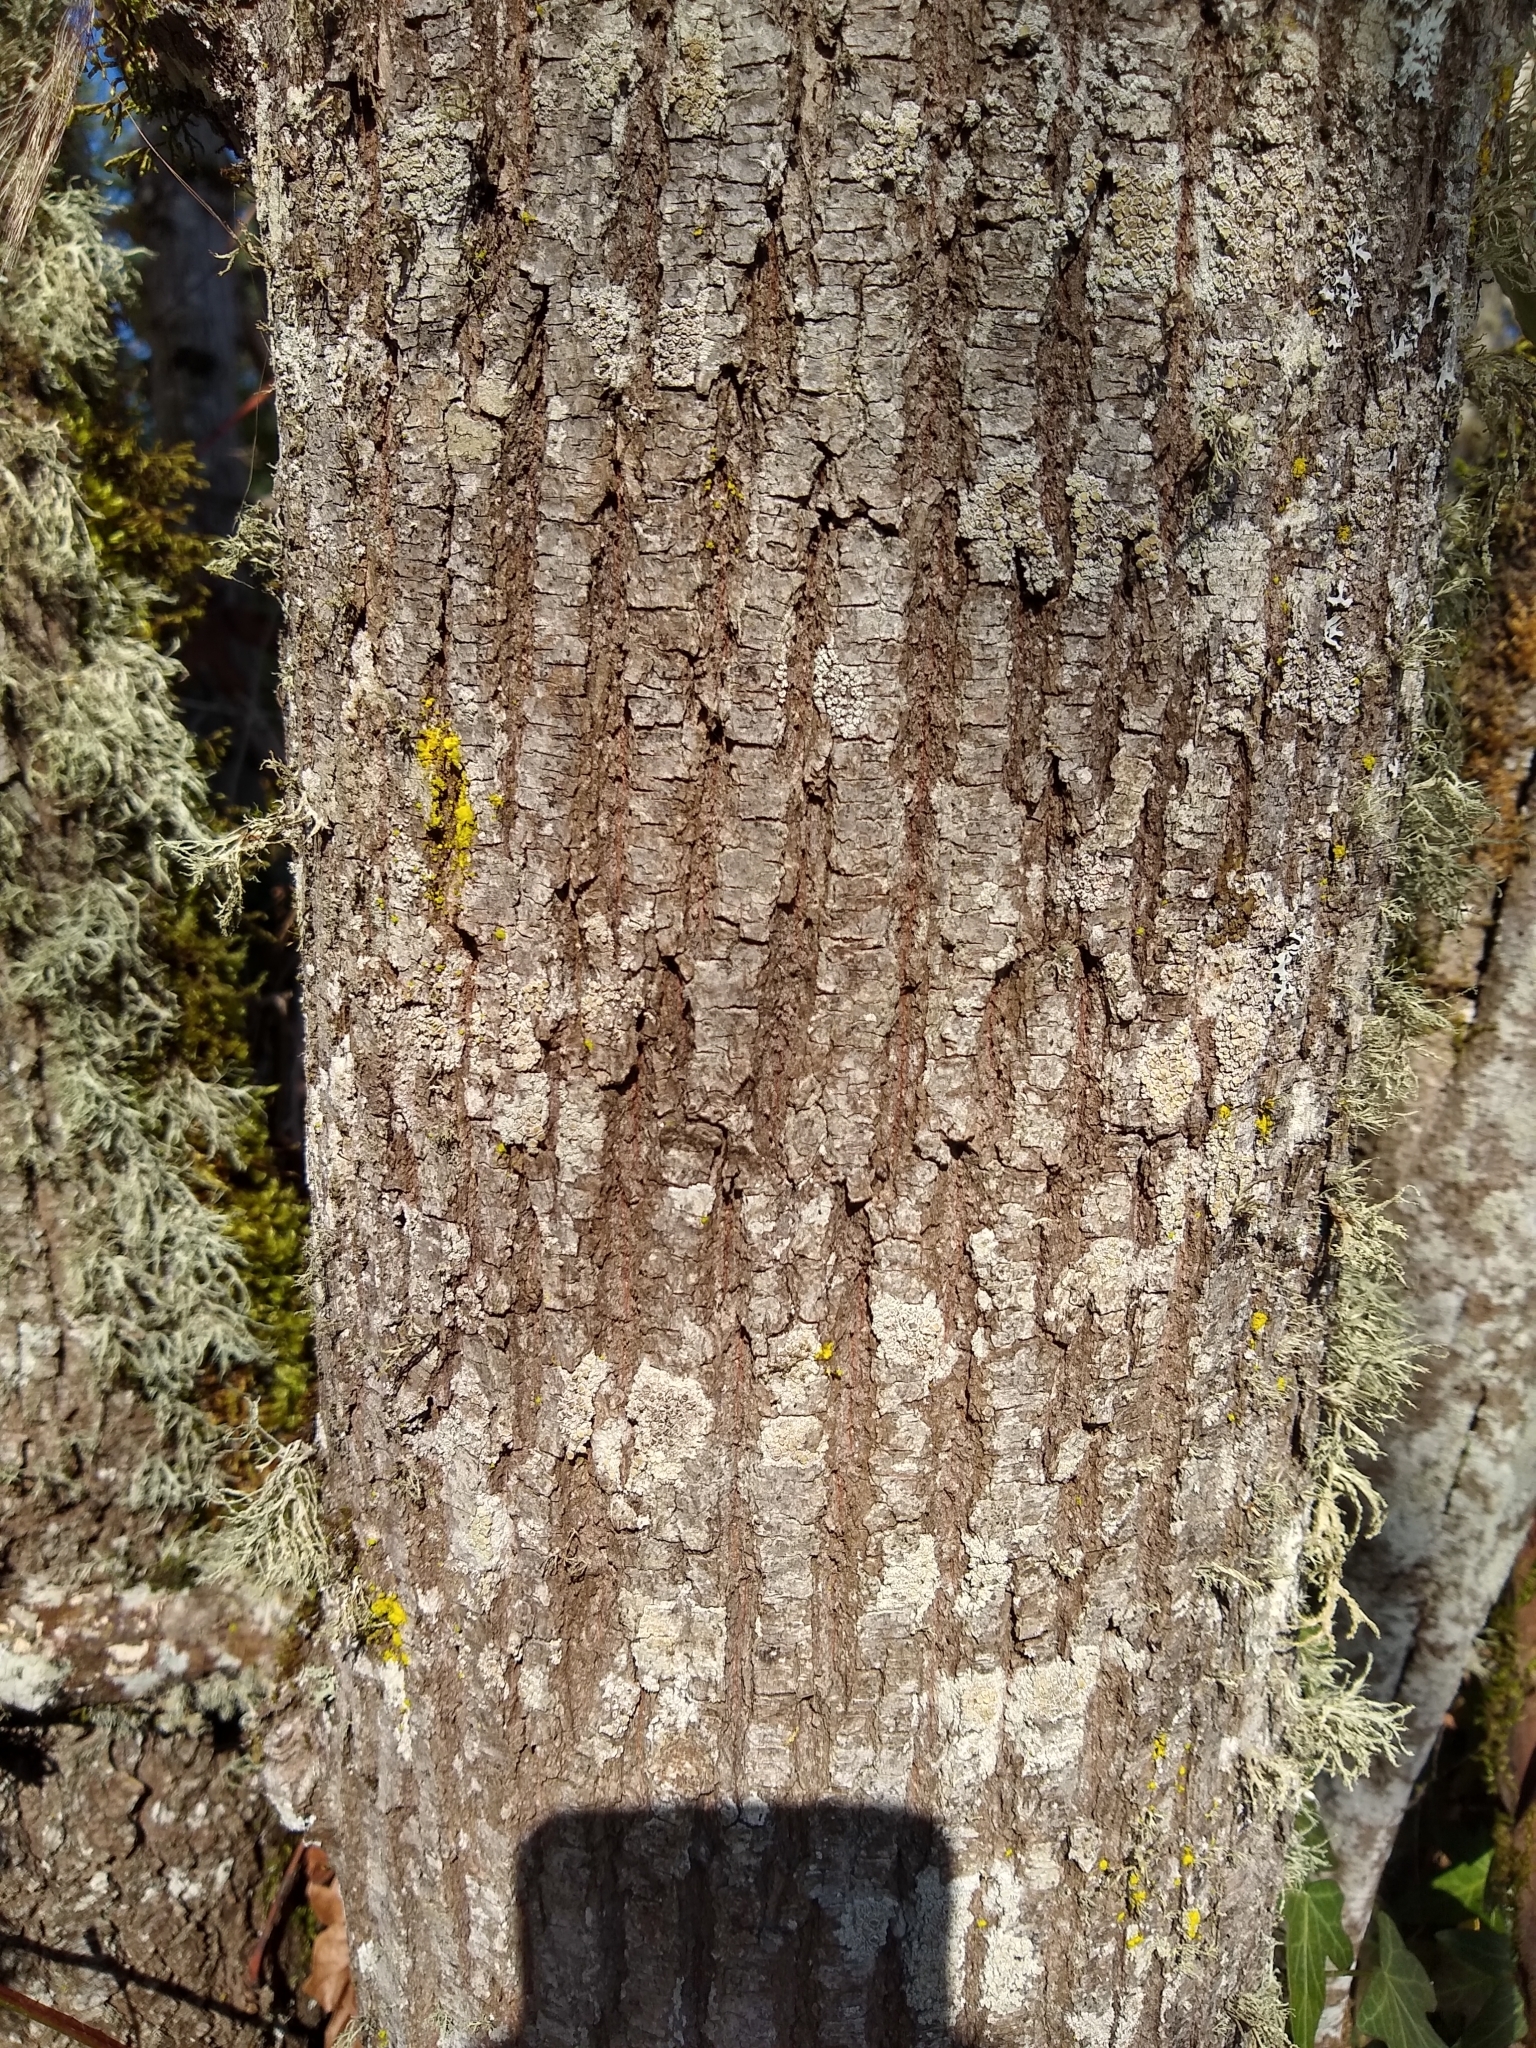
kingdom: Plantae
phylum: Tracheophyta
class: Magnoliopsida
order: Sapindales
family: Sapindaceae
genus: Acer
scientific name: Acer macrophyllum
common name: Oregon maple
